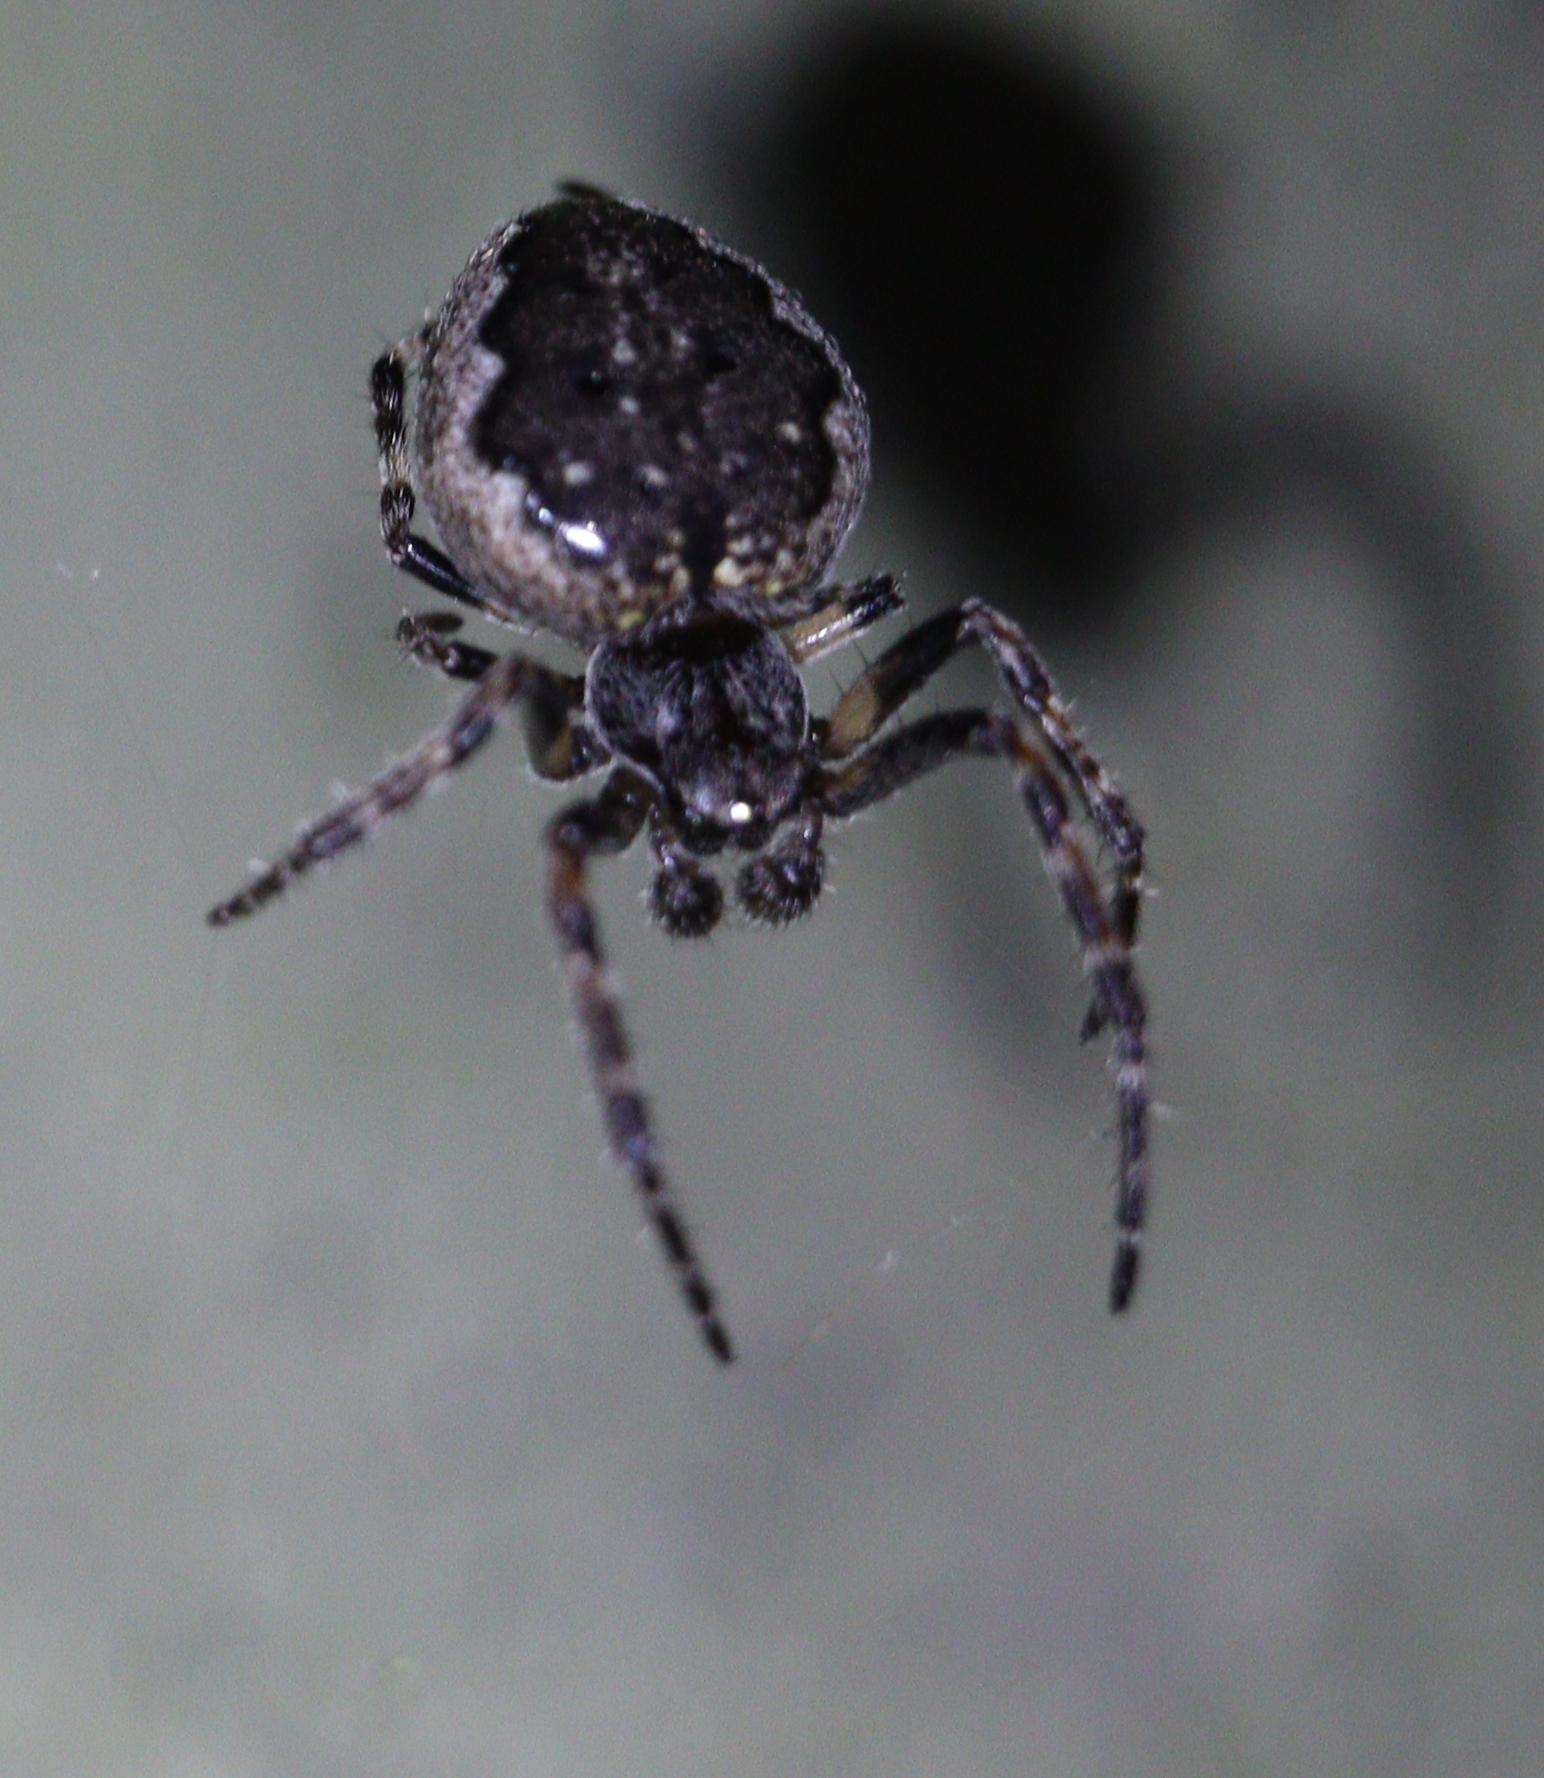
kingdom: Animalia
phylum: Arthropoda
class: Arachnida
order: Araneae
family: Araneidae
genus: Nuctenea
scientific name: Nuctenea umbratica
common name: Toad spider
